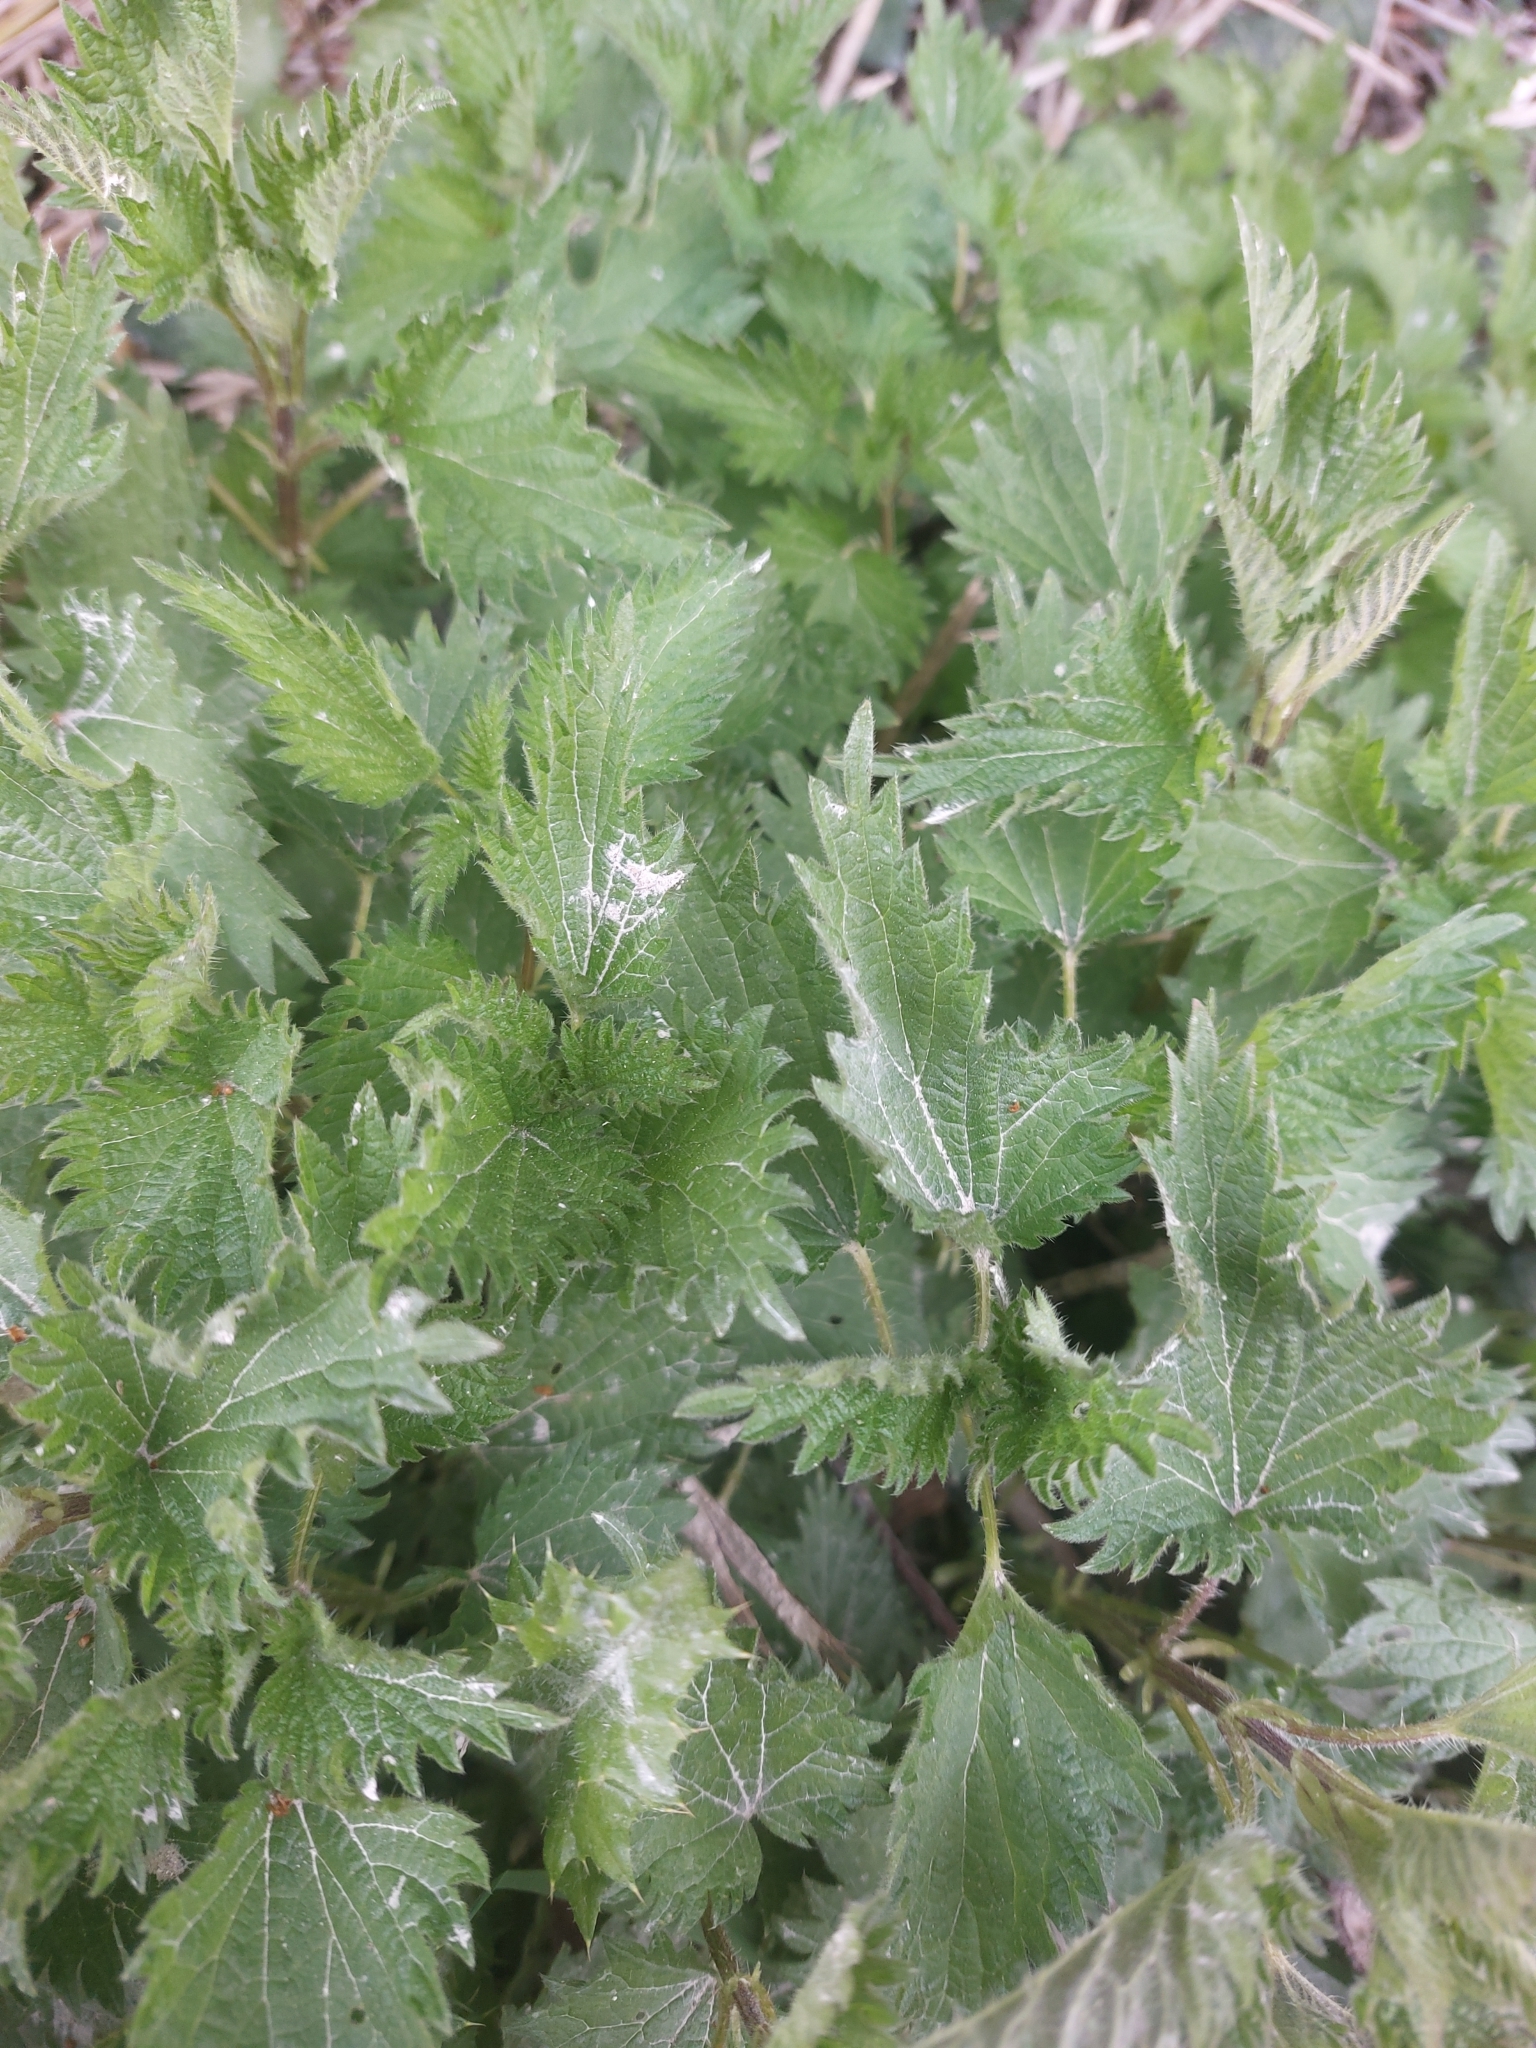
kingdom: Plantae
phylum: Tracheophyta
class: Magnoliopsida
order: Rosales
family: Urticaceae
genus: Urtica
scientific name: Urtica dioica
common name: Common nettle
